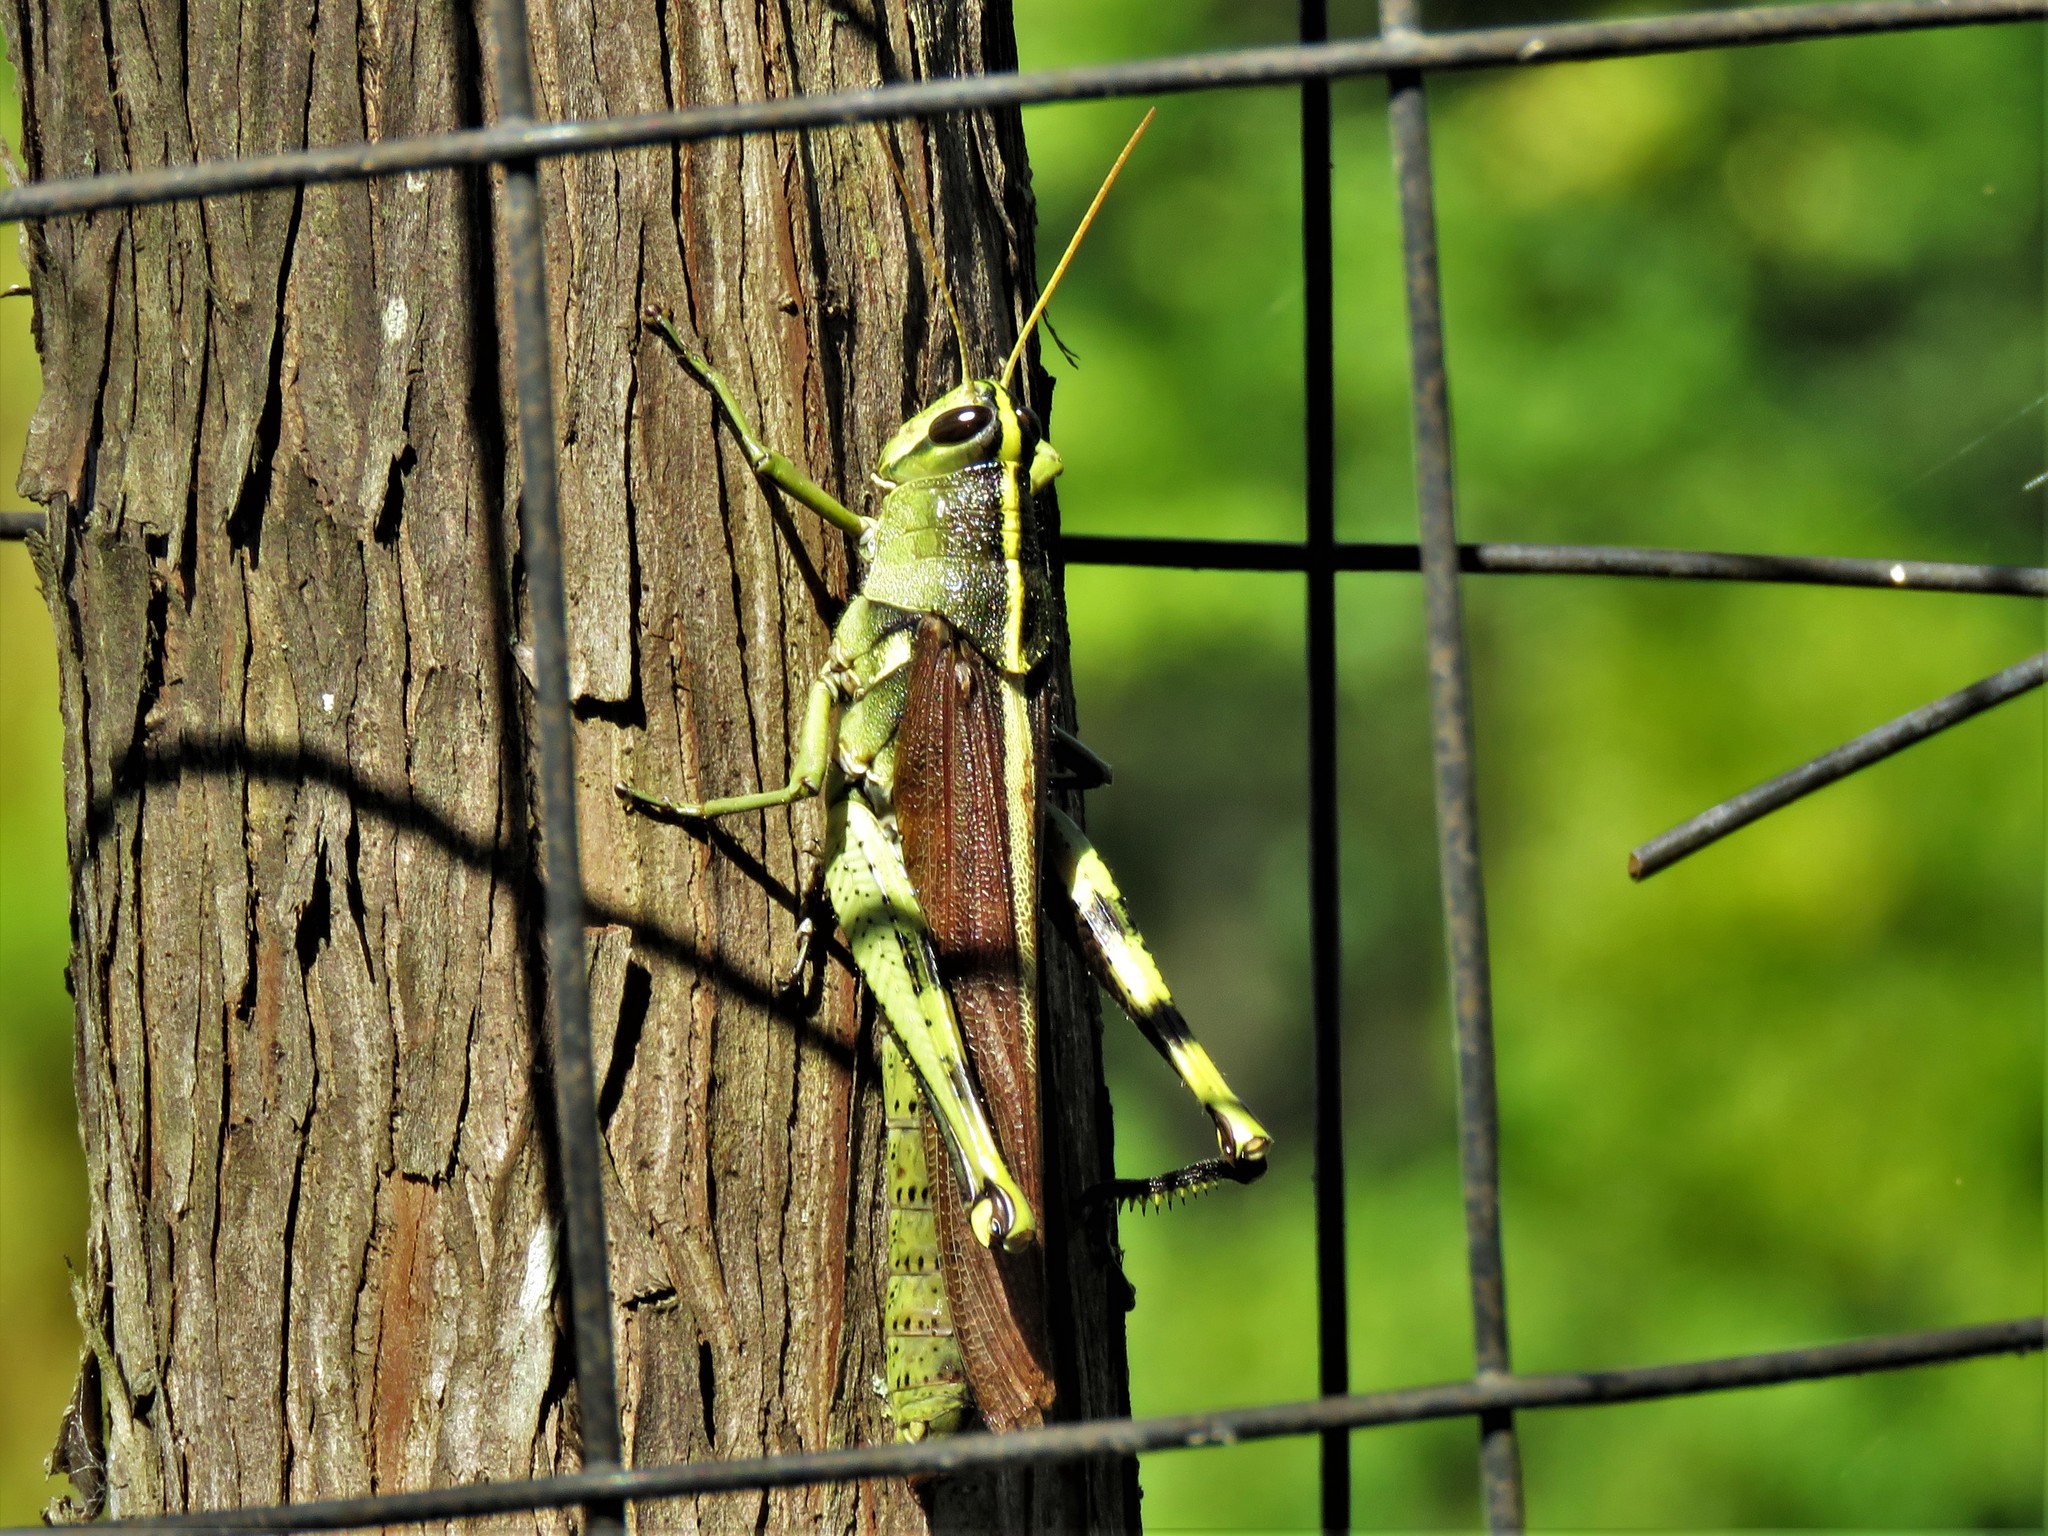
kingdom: Animalia
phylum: Arthropoda
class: Insecta
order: Orthoptera
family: Acrididae
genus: Schistocerca
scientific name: Schistocerca obscura
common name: Obscure bird grasshopper
